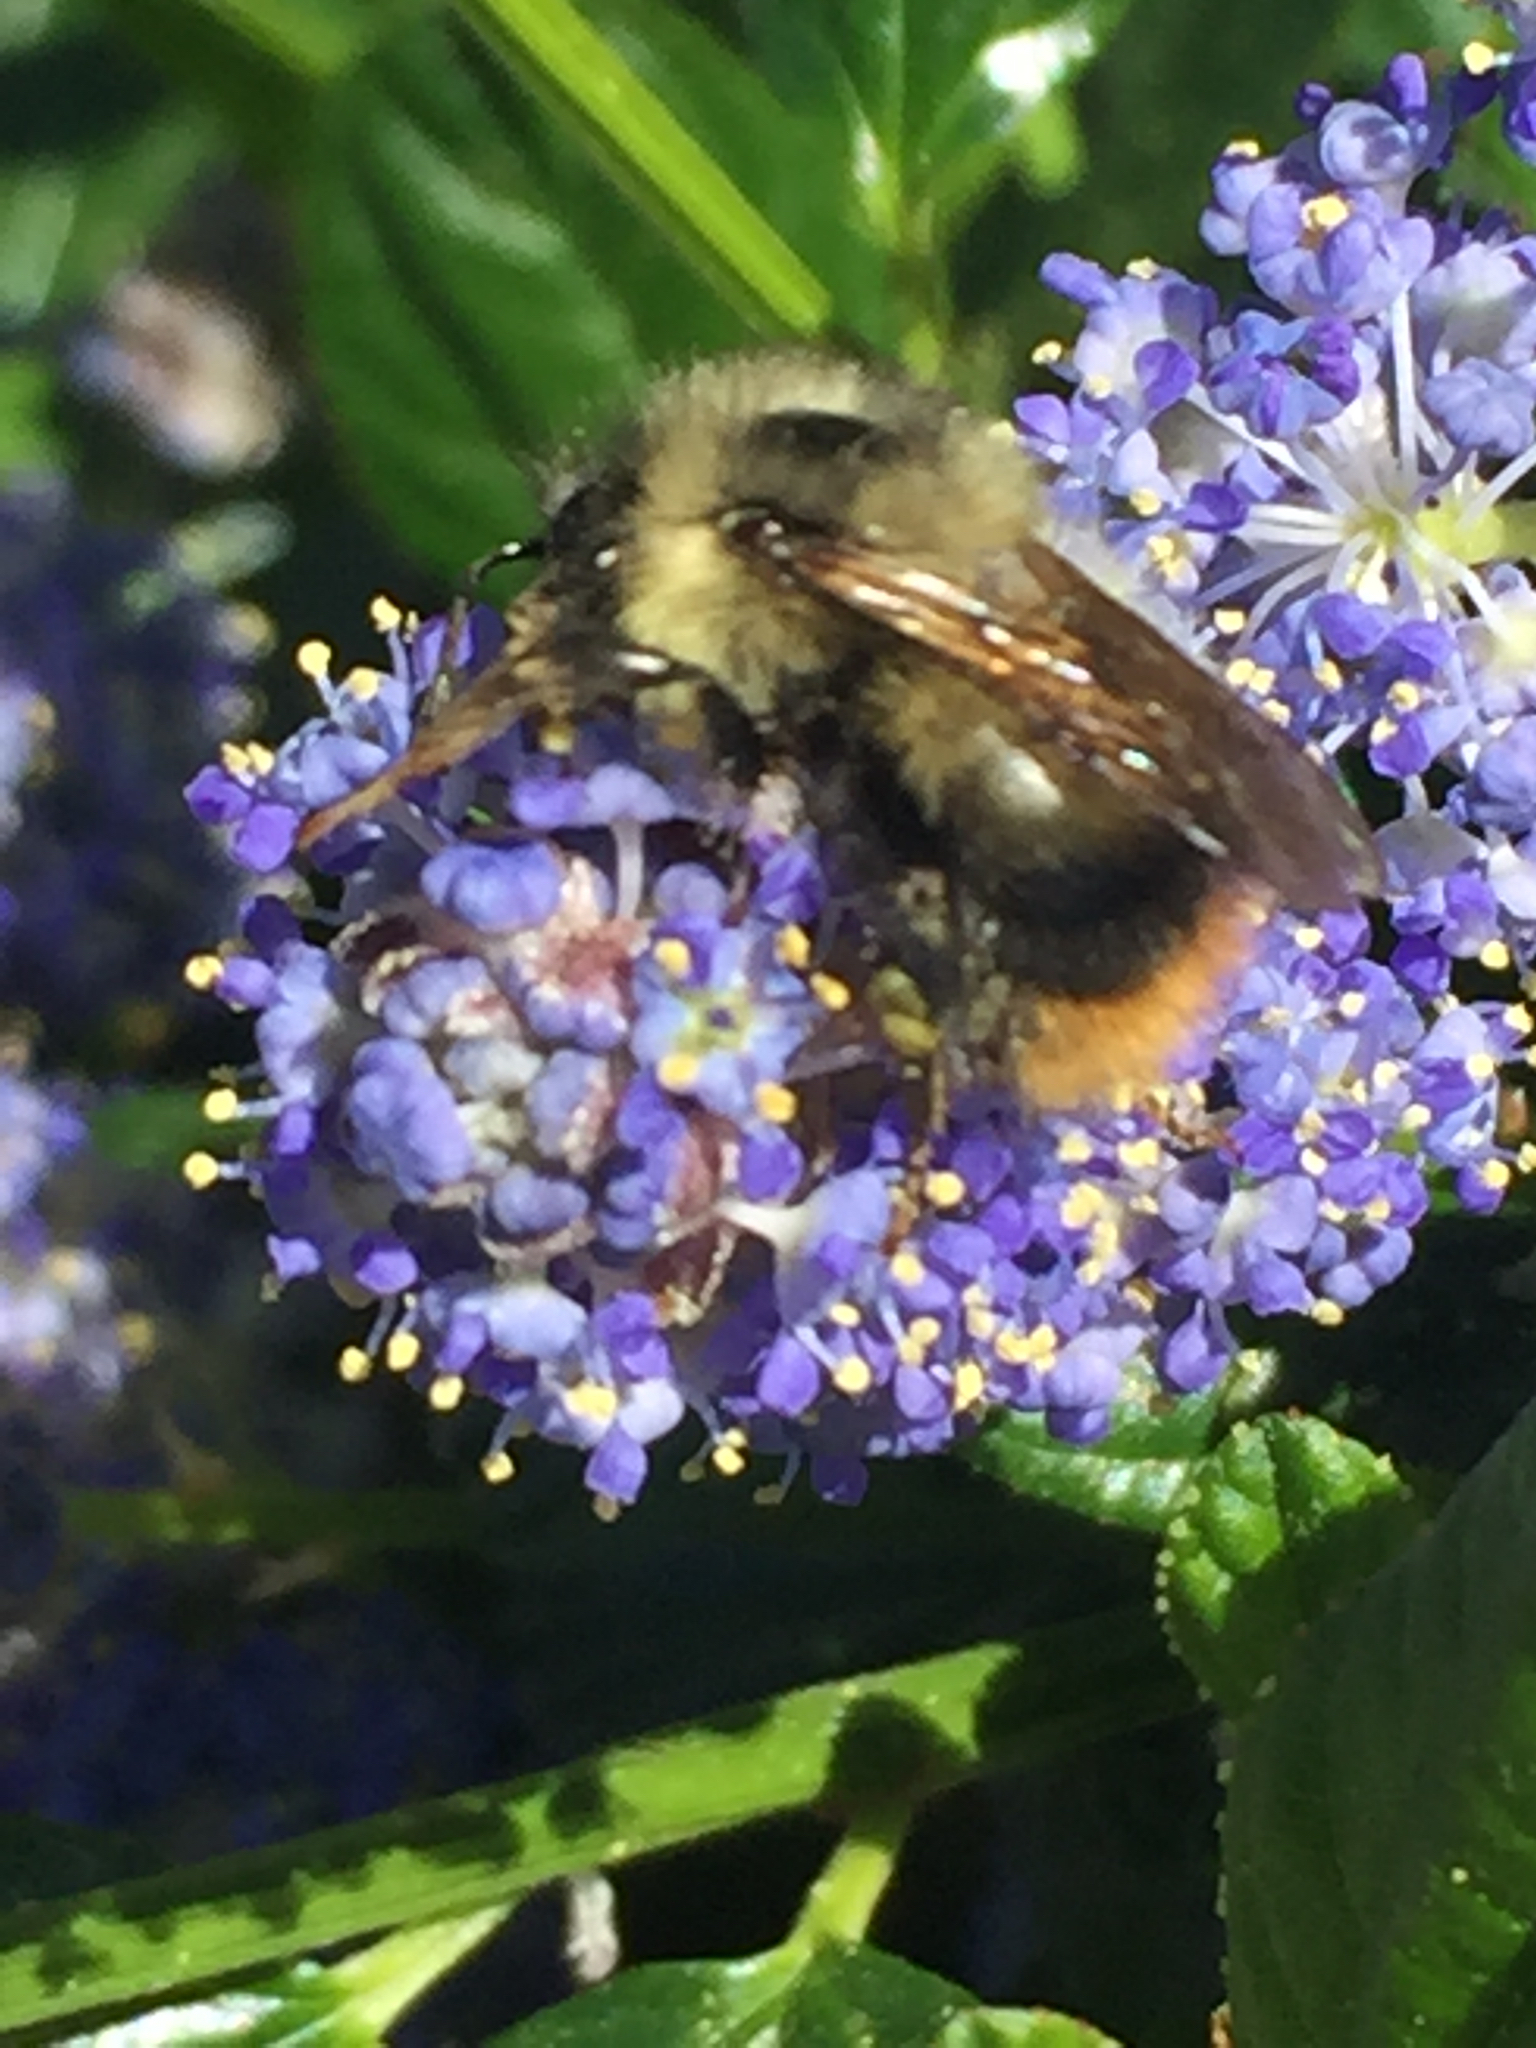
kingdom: Animalia
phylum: Arthropoda
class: Insecta
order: Hymenoptera
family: Apidae
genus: Bombus
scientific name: Bombus mixtus
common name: Fuzzy-horned bumble bee
